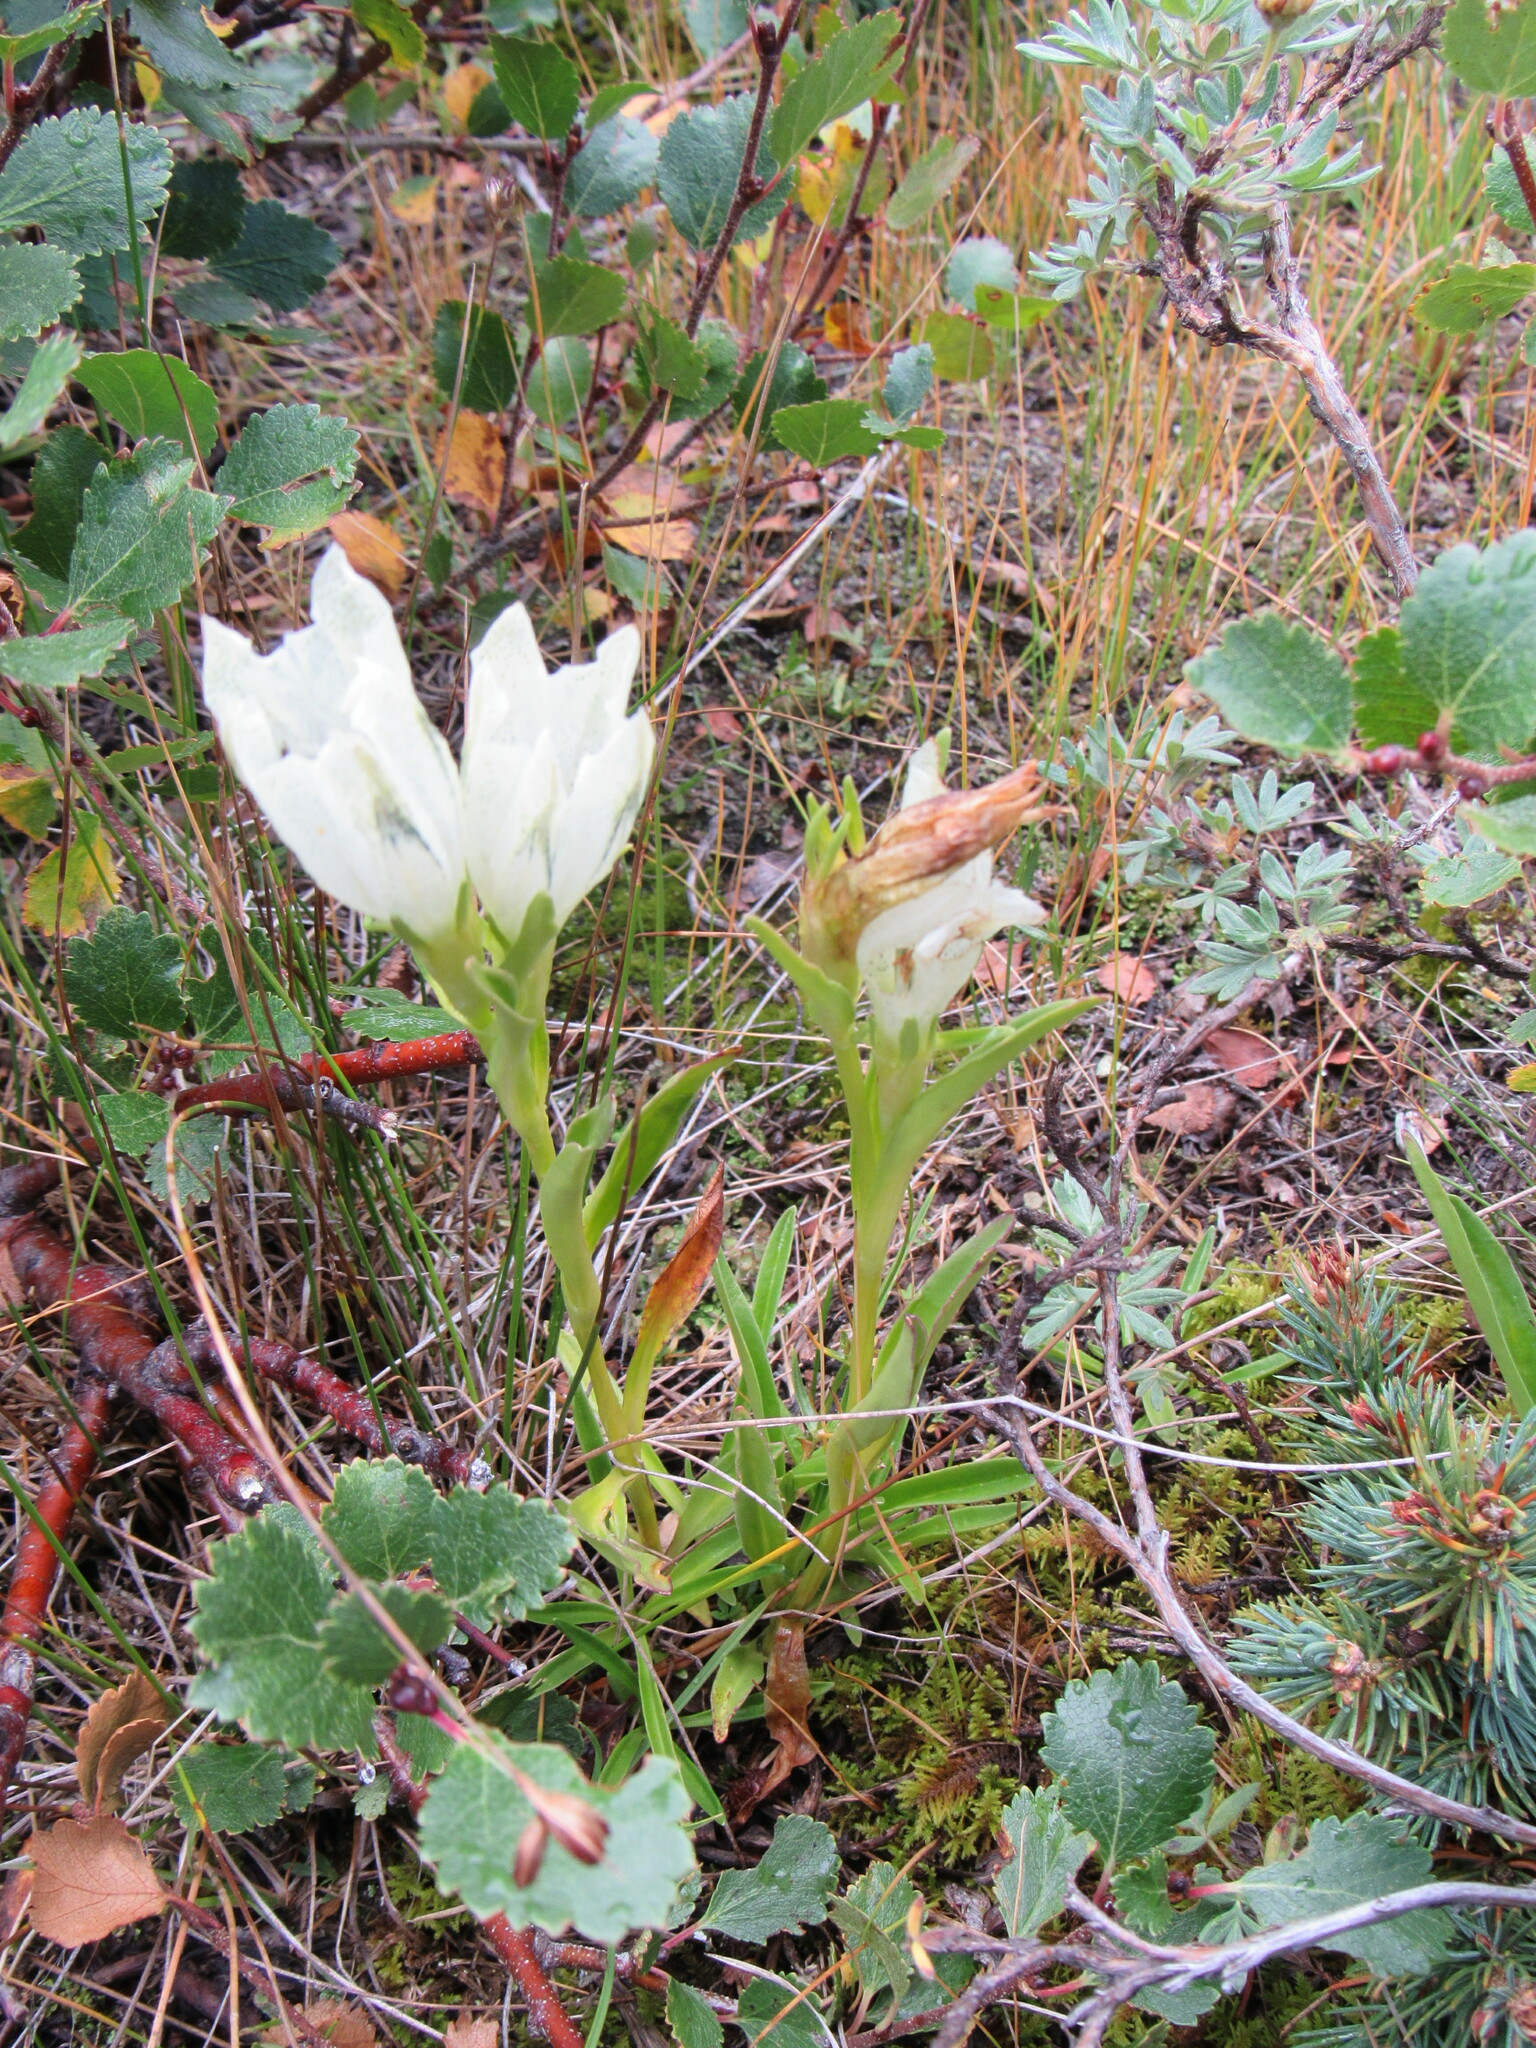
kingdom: Plantae
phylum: Tracheophyta
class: Magnoliopsida
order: Gentianales
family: Gentianaceae
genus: Gentiana
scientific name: Gentiana algida
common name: Arctic gentian
